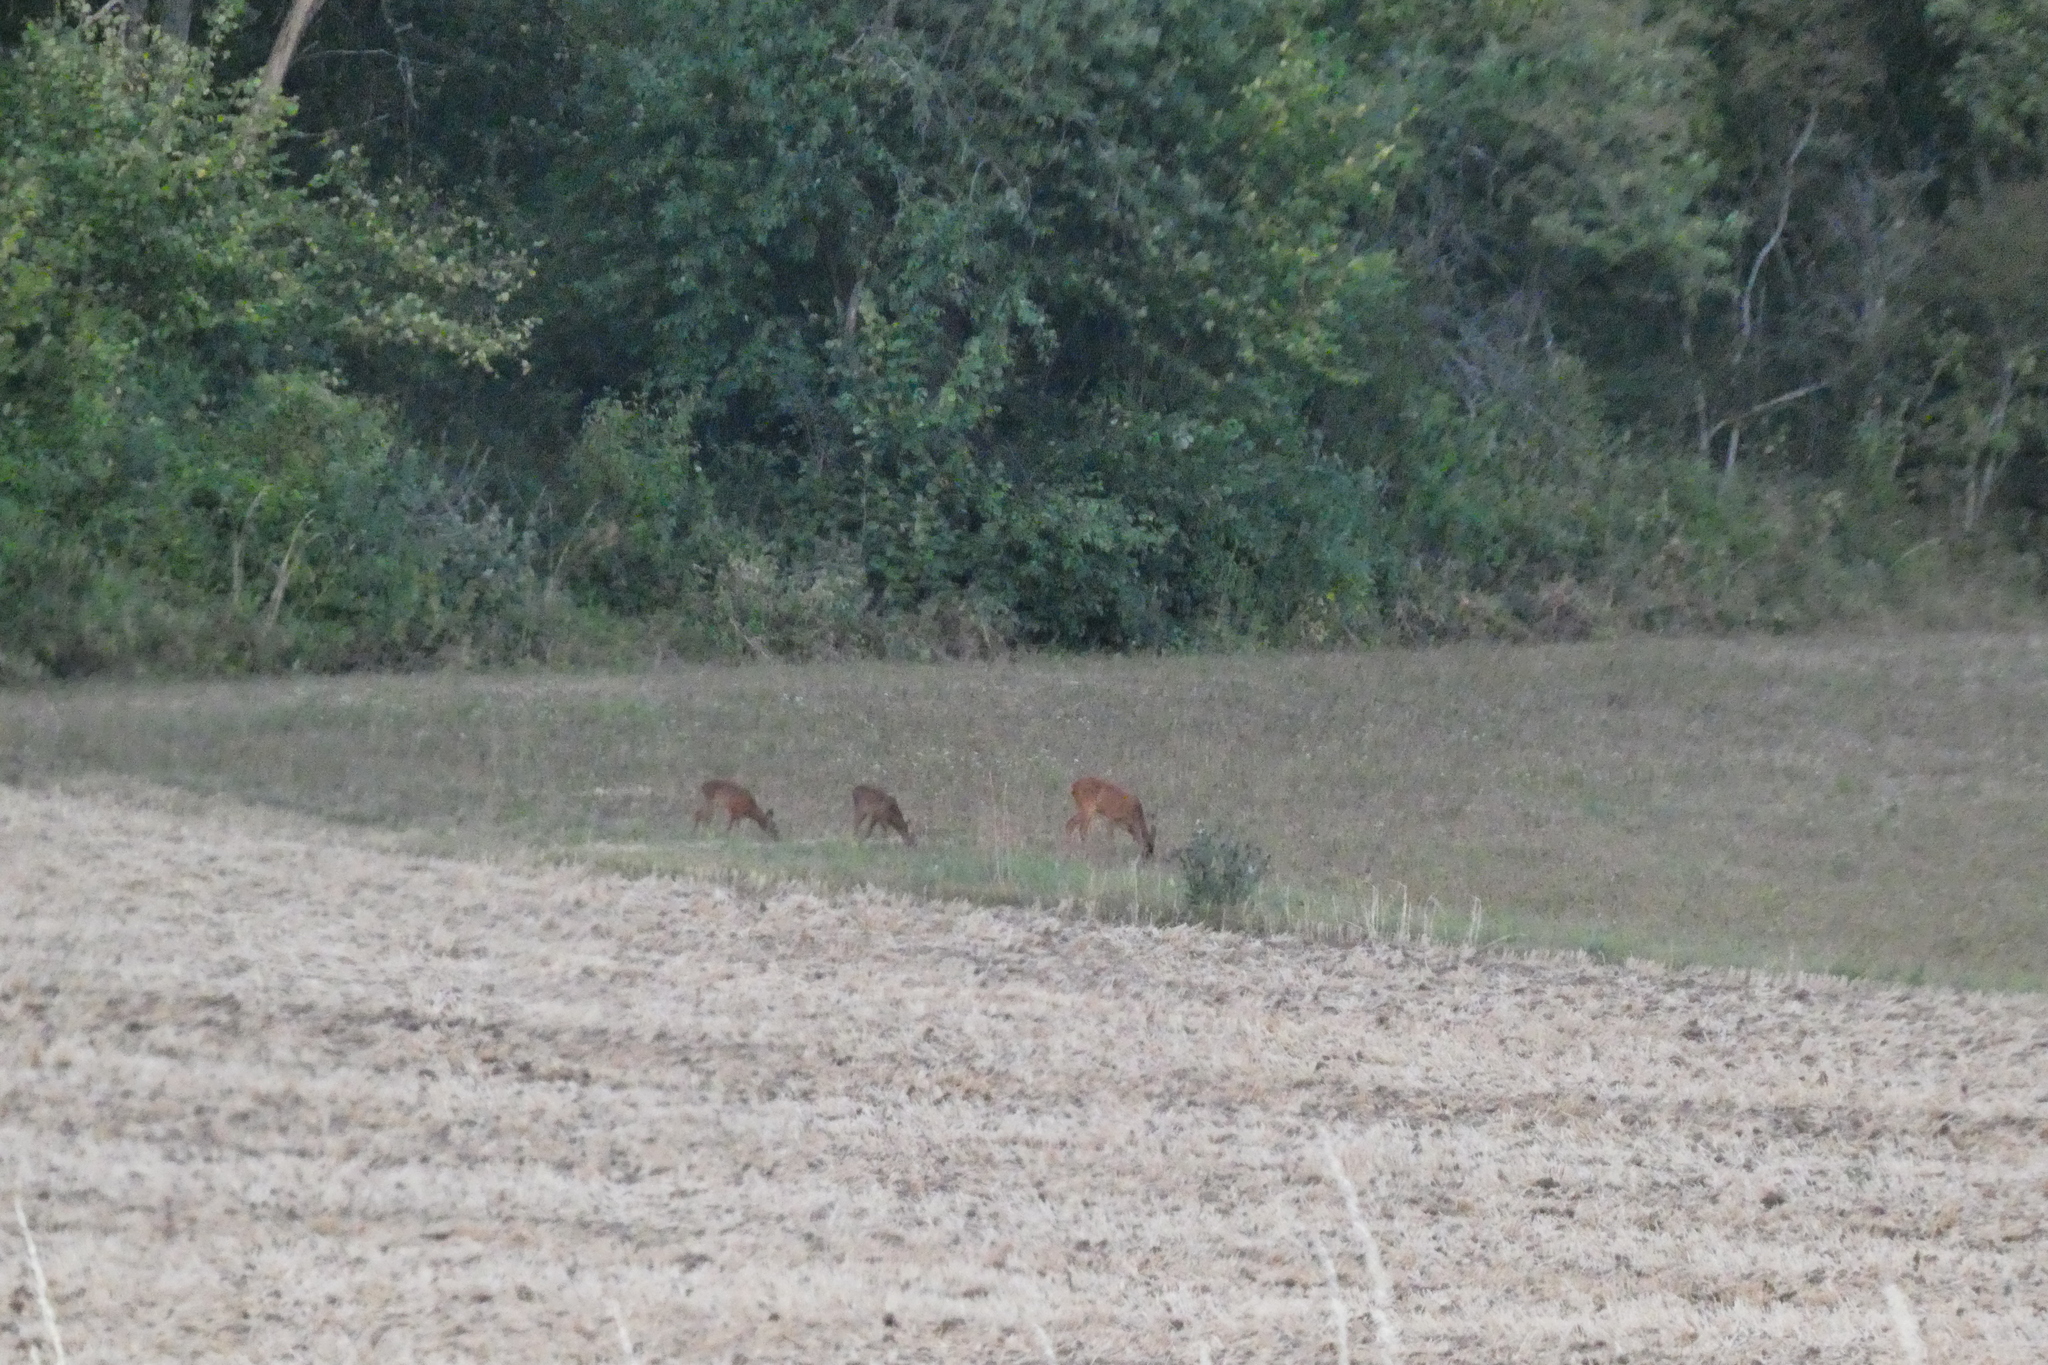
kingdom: Animalia
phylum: Chordata
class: Mammalia
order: Artiodactyla
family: Cervidae
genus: Capreolus
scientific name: Capreolus capreolus
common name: Western roe deer
